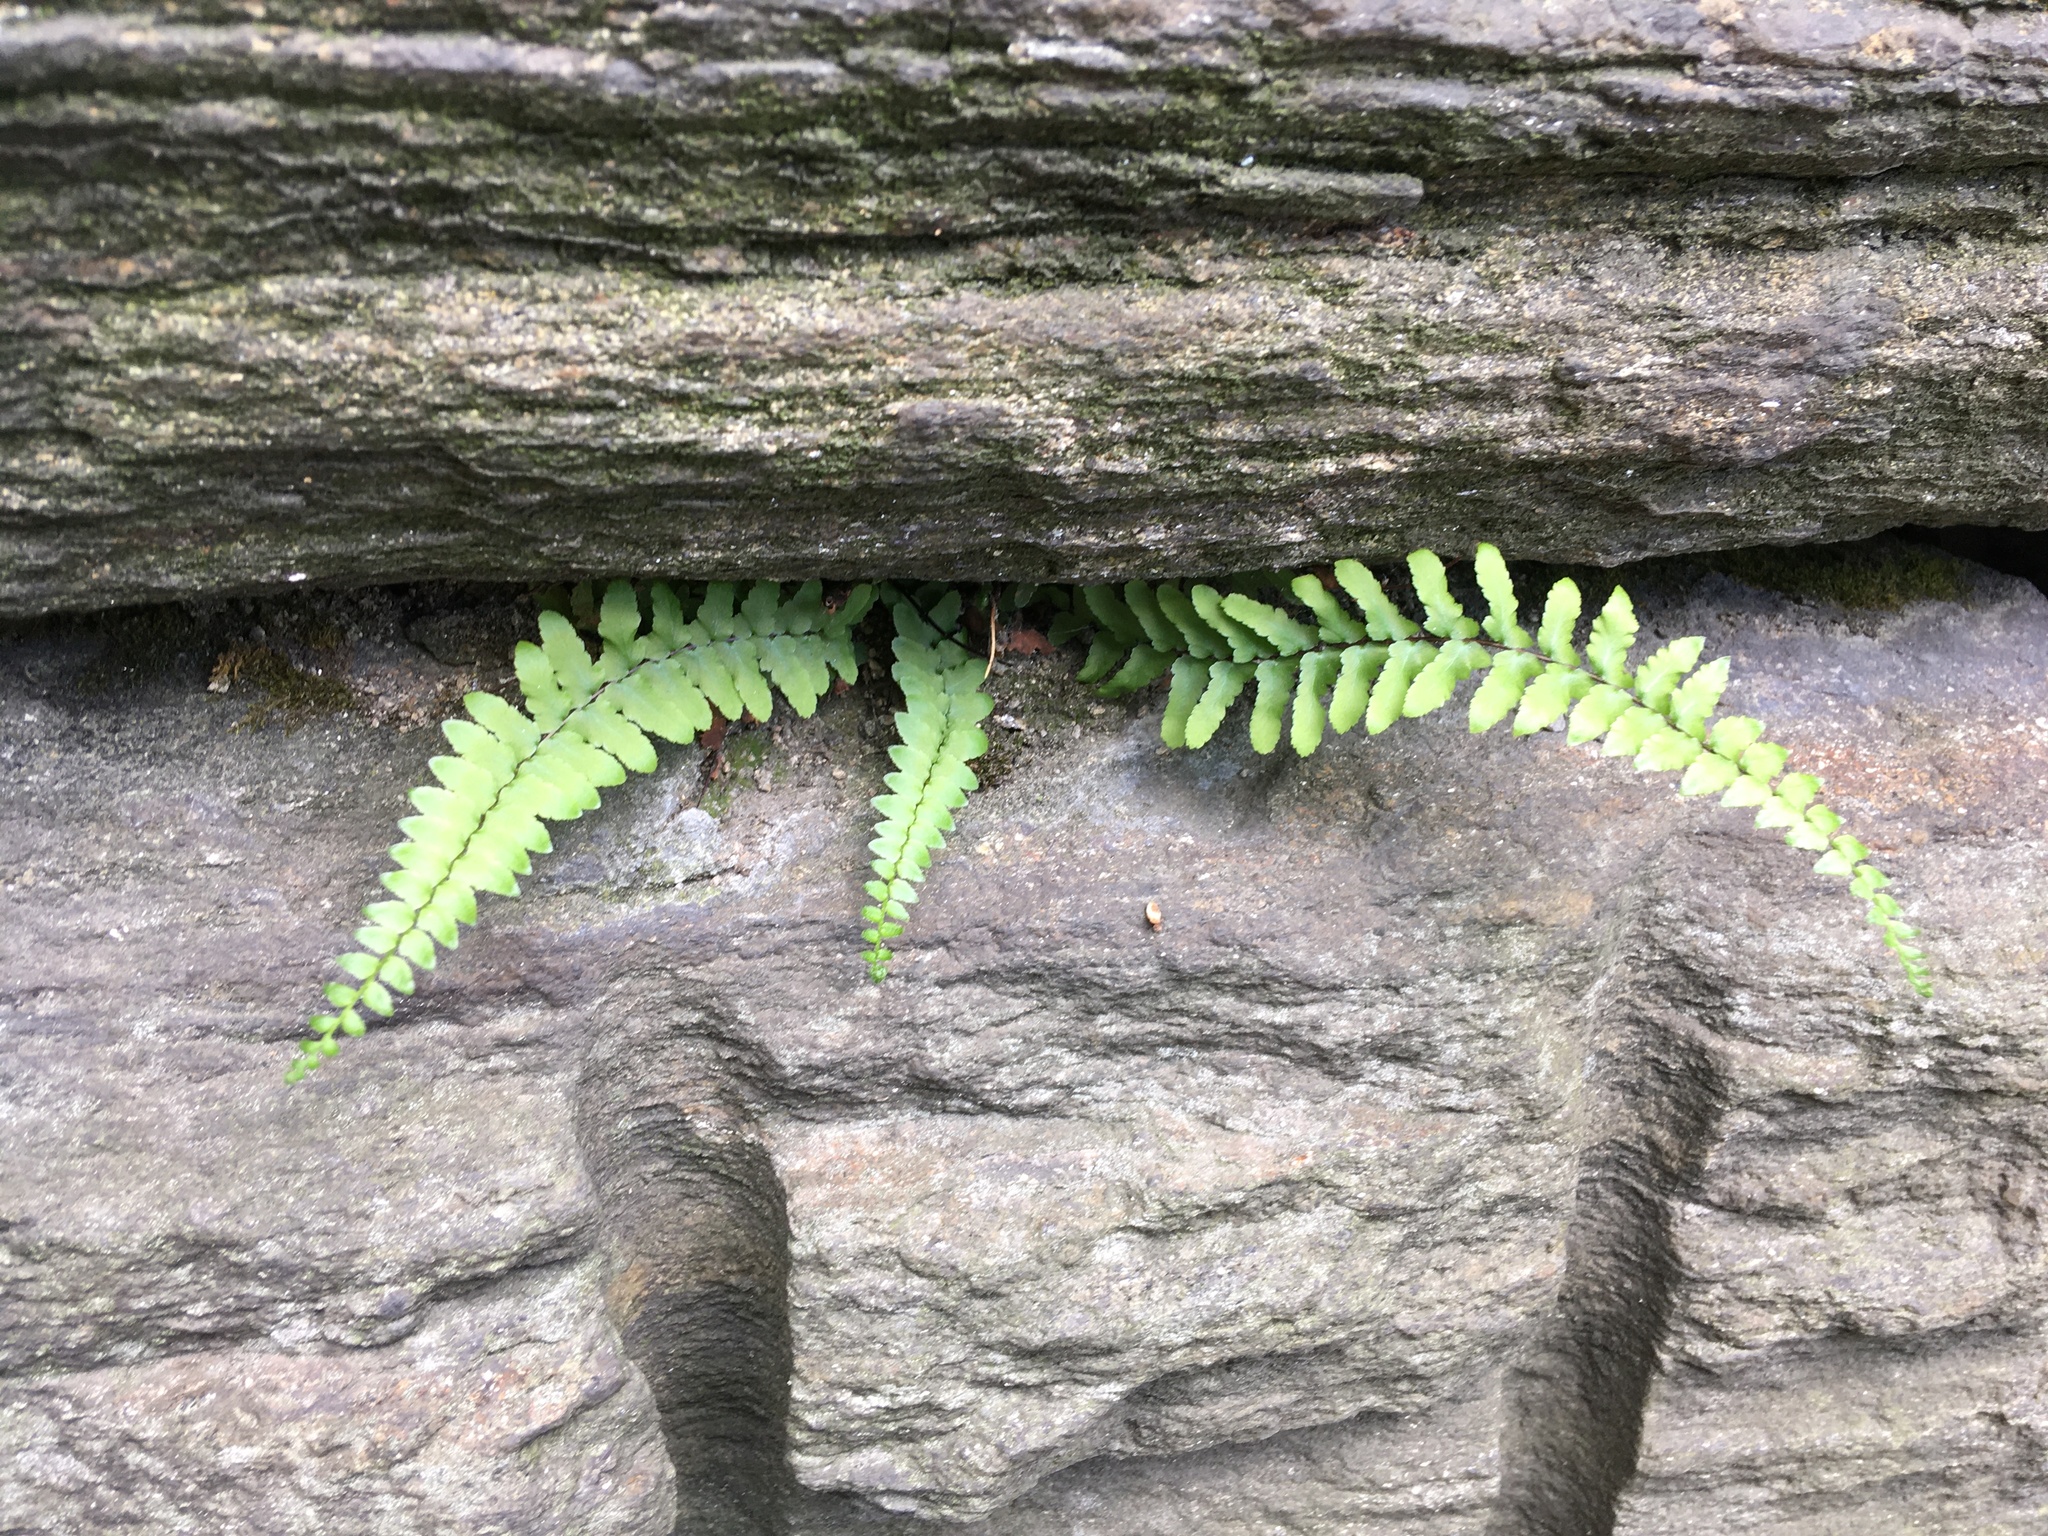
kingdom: Plantae
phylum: Tracheophyta
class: Polypodiopsida
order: Polypodiales
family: Aspleniaceae
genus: Asplenium
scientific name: Asplenium platyneuron
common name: Ebony spleenwort
